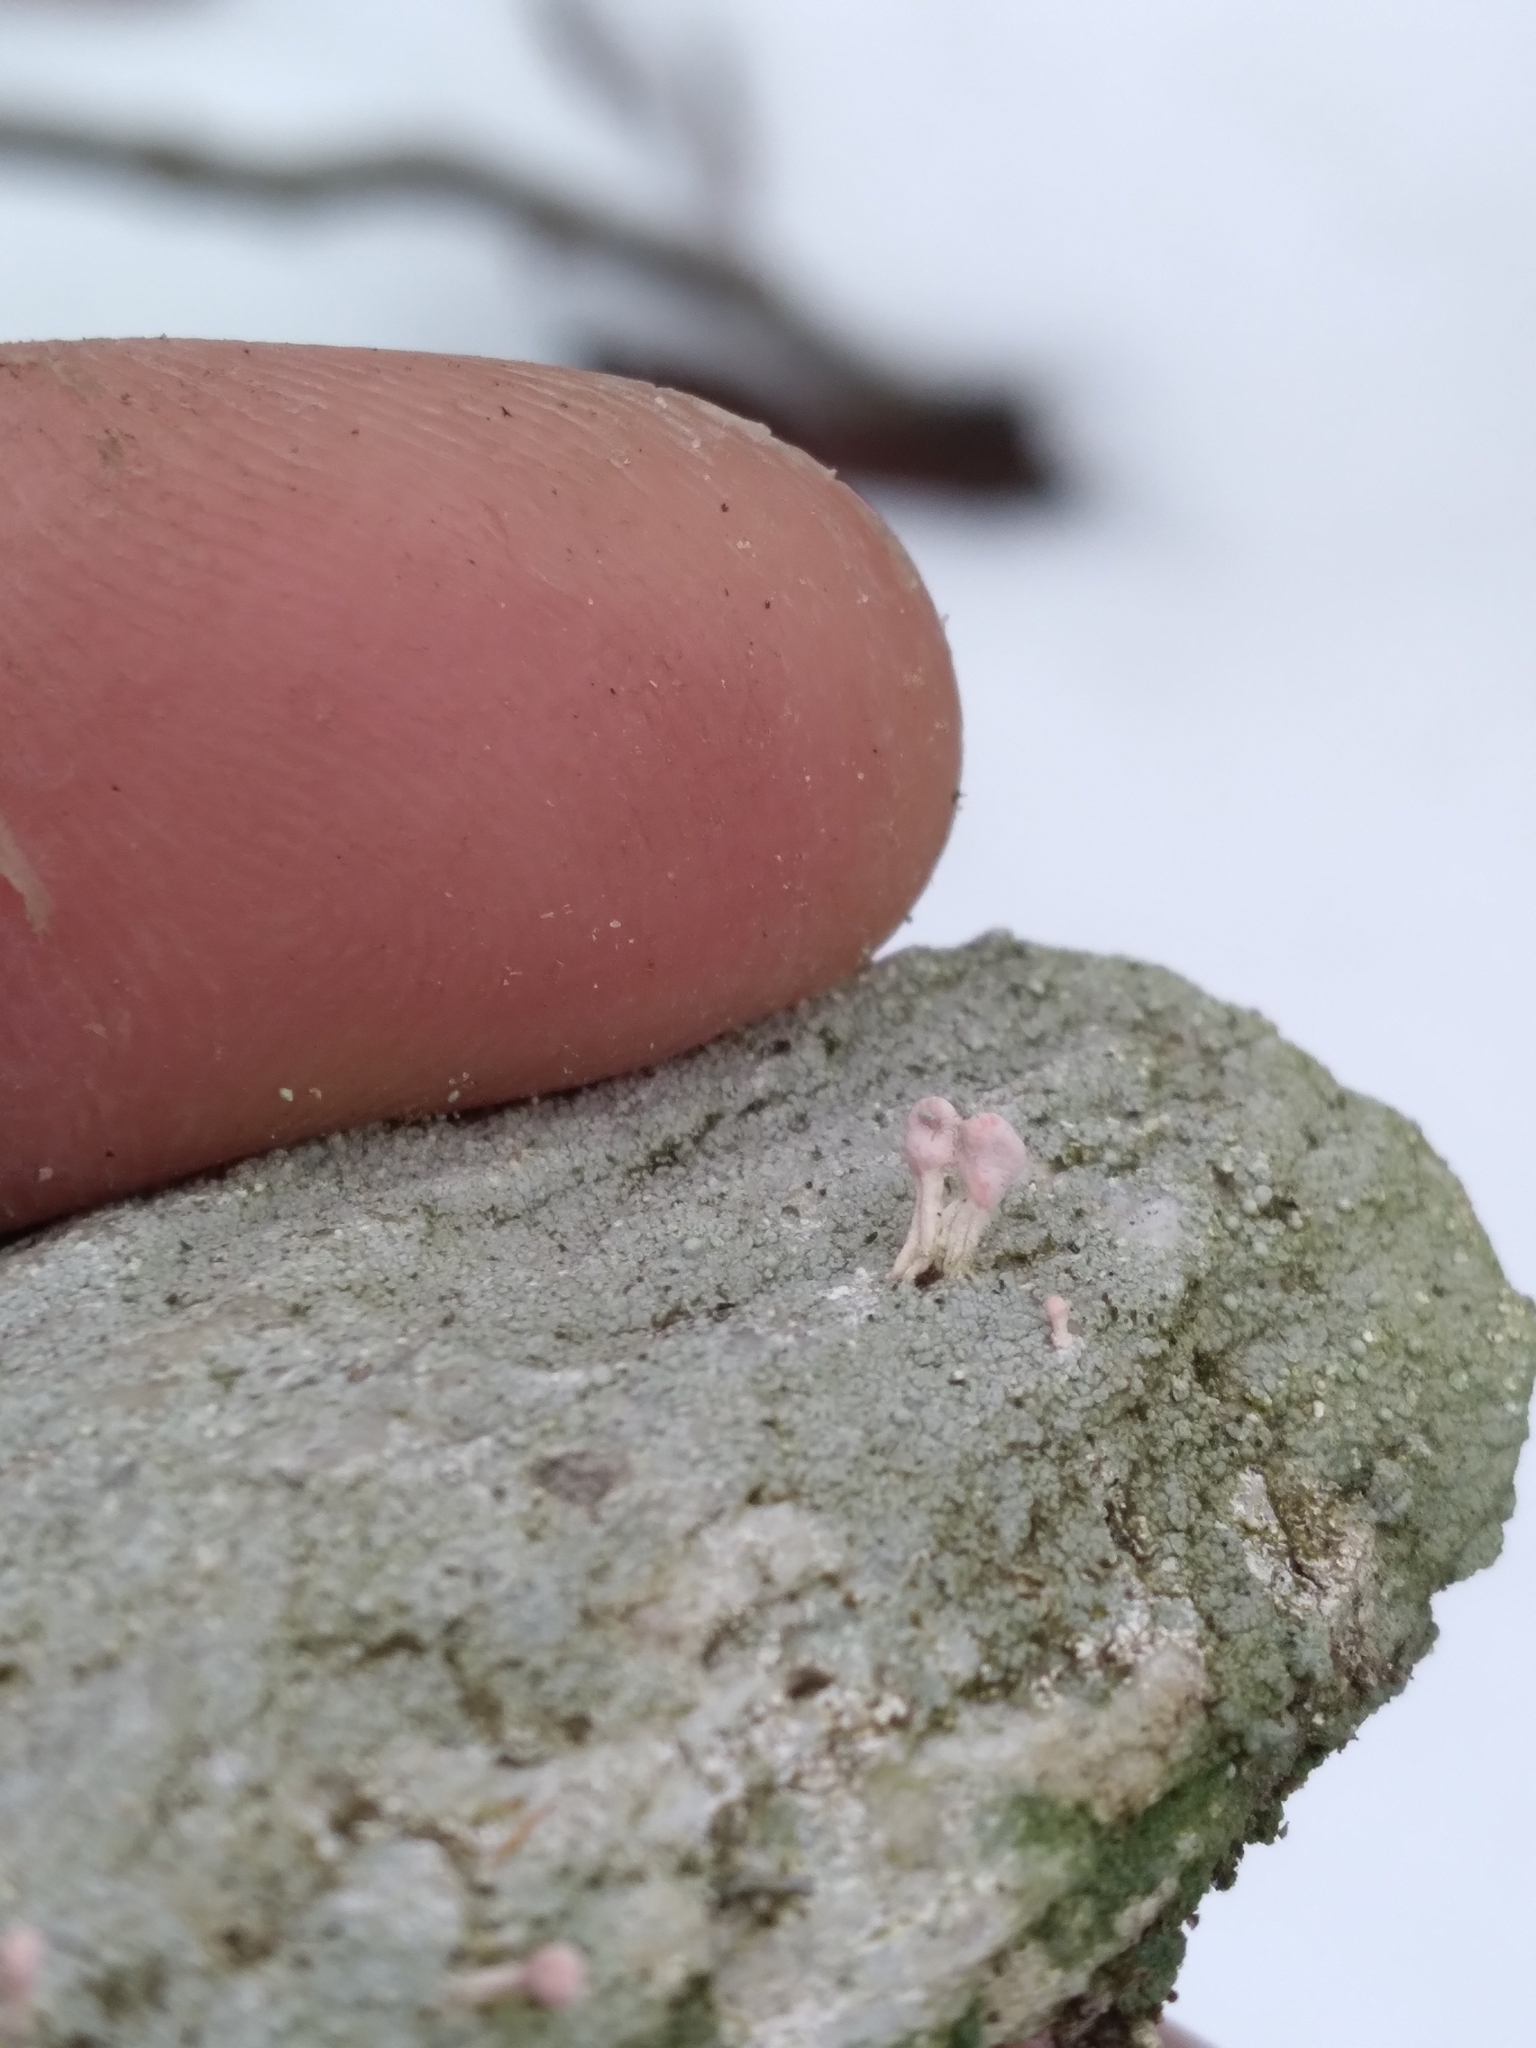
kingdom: Fungi
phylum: Ascomycota
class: Lecanoromycetes
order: Pertusariales
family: Icmadophilaceae
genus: Dibaeis
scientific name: Dibaeis baeomyces
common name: Pink earth lichen
